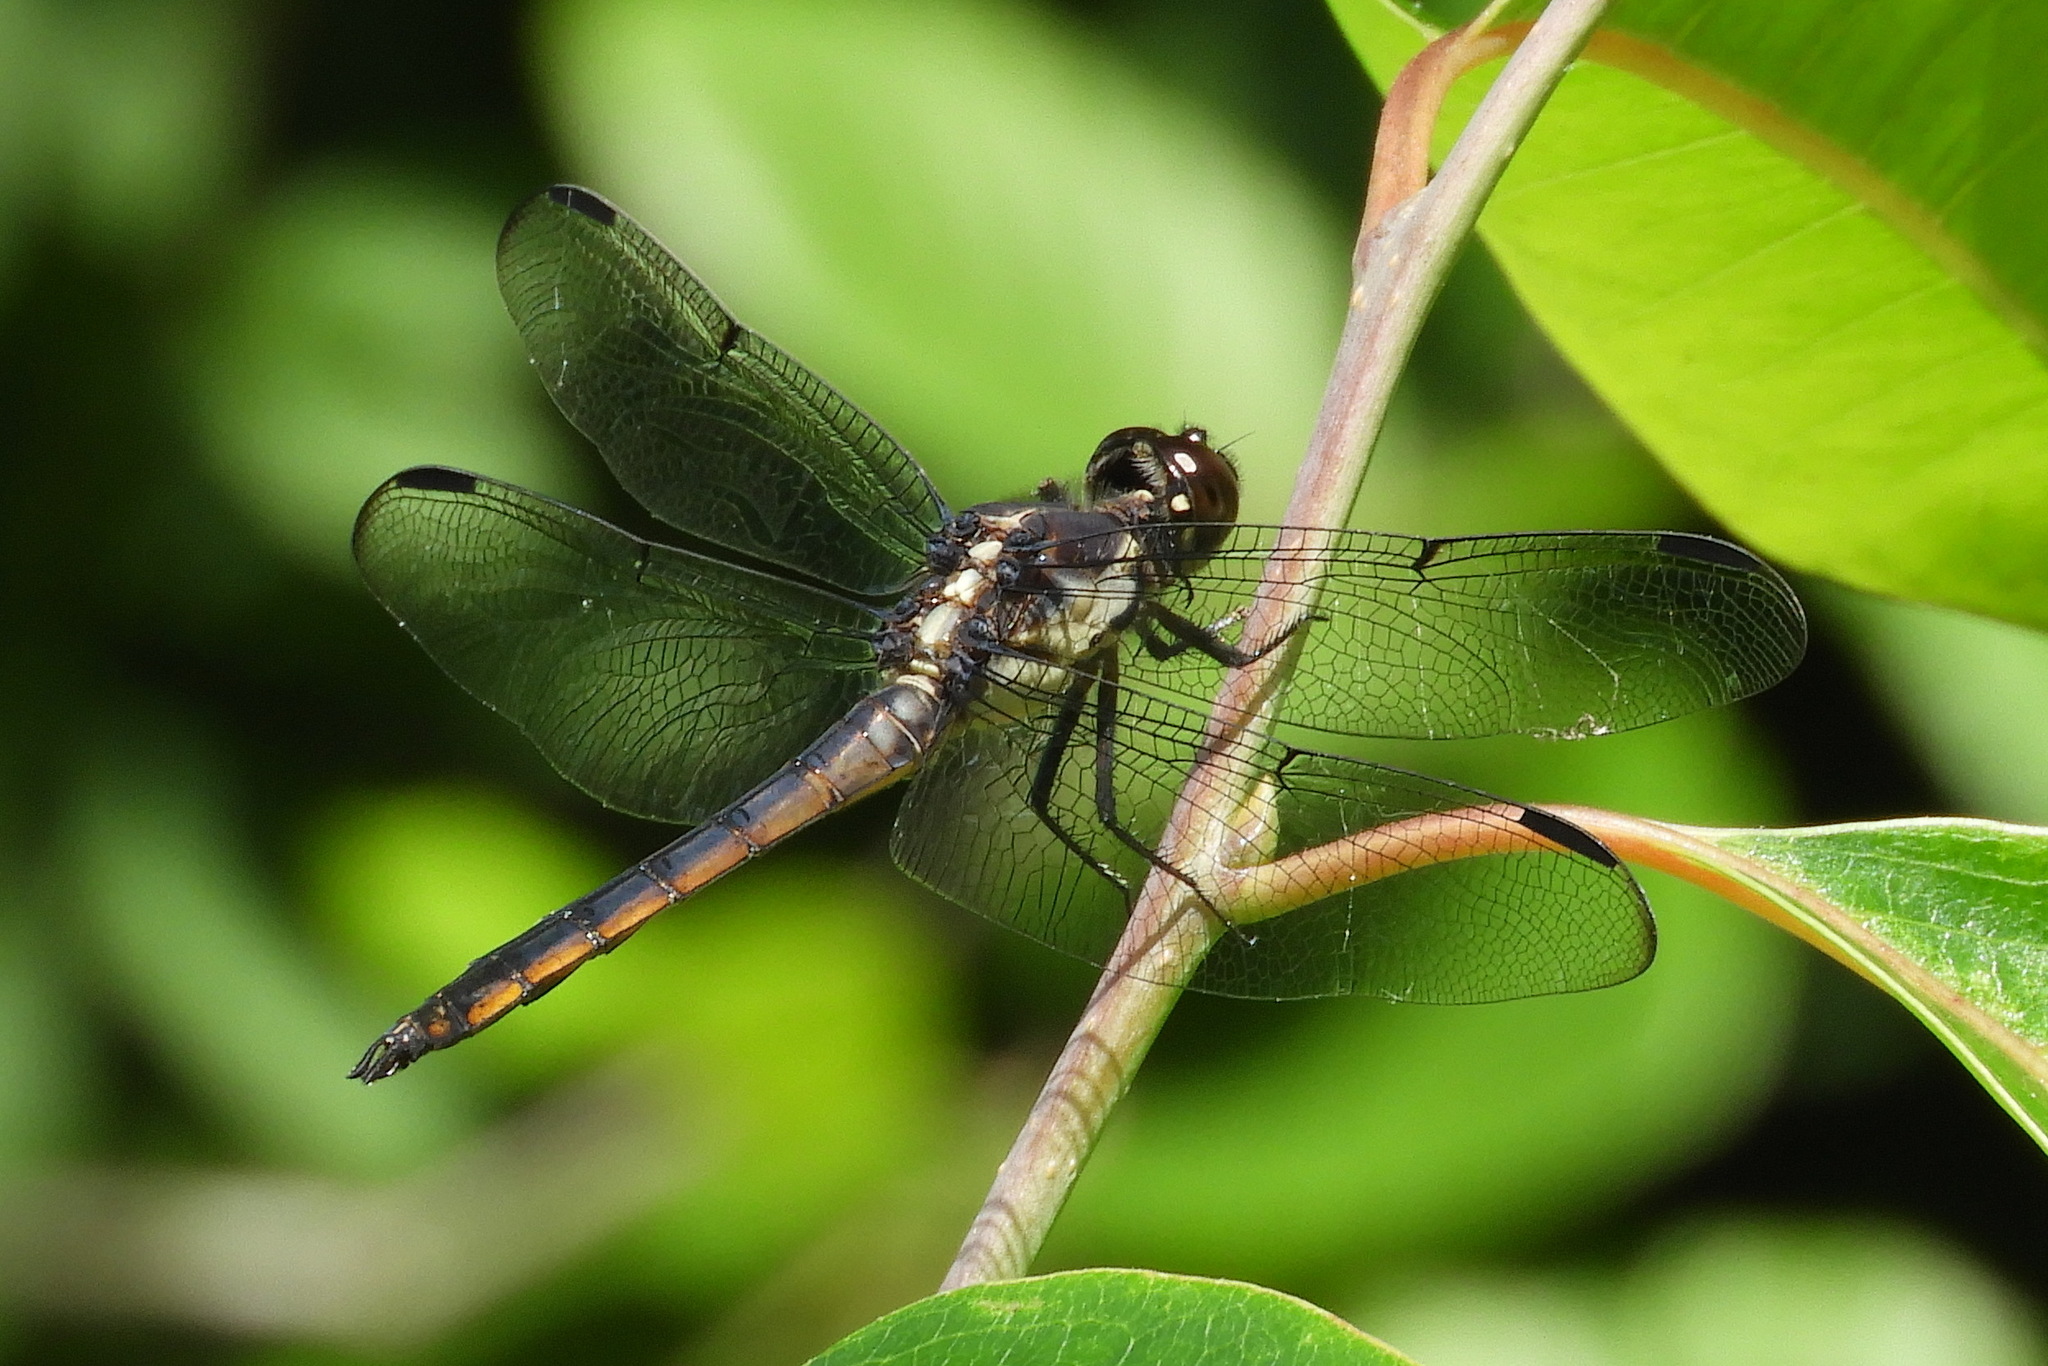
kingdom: Animalia
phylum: Arthropoda
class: Insecta
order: Odonata
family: Libellulidae
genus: Libellula
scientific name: Libellula incesta
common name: Slaty skimmer
